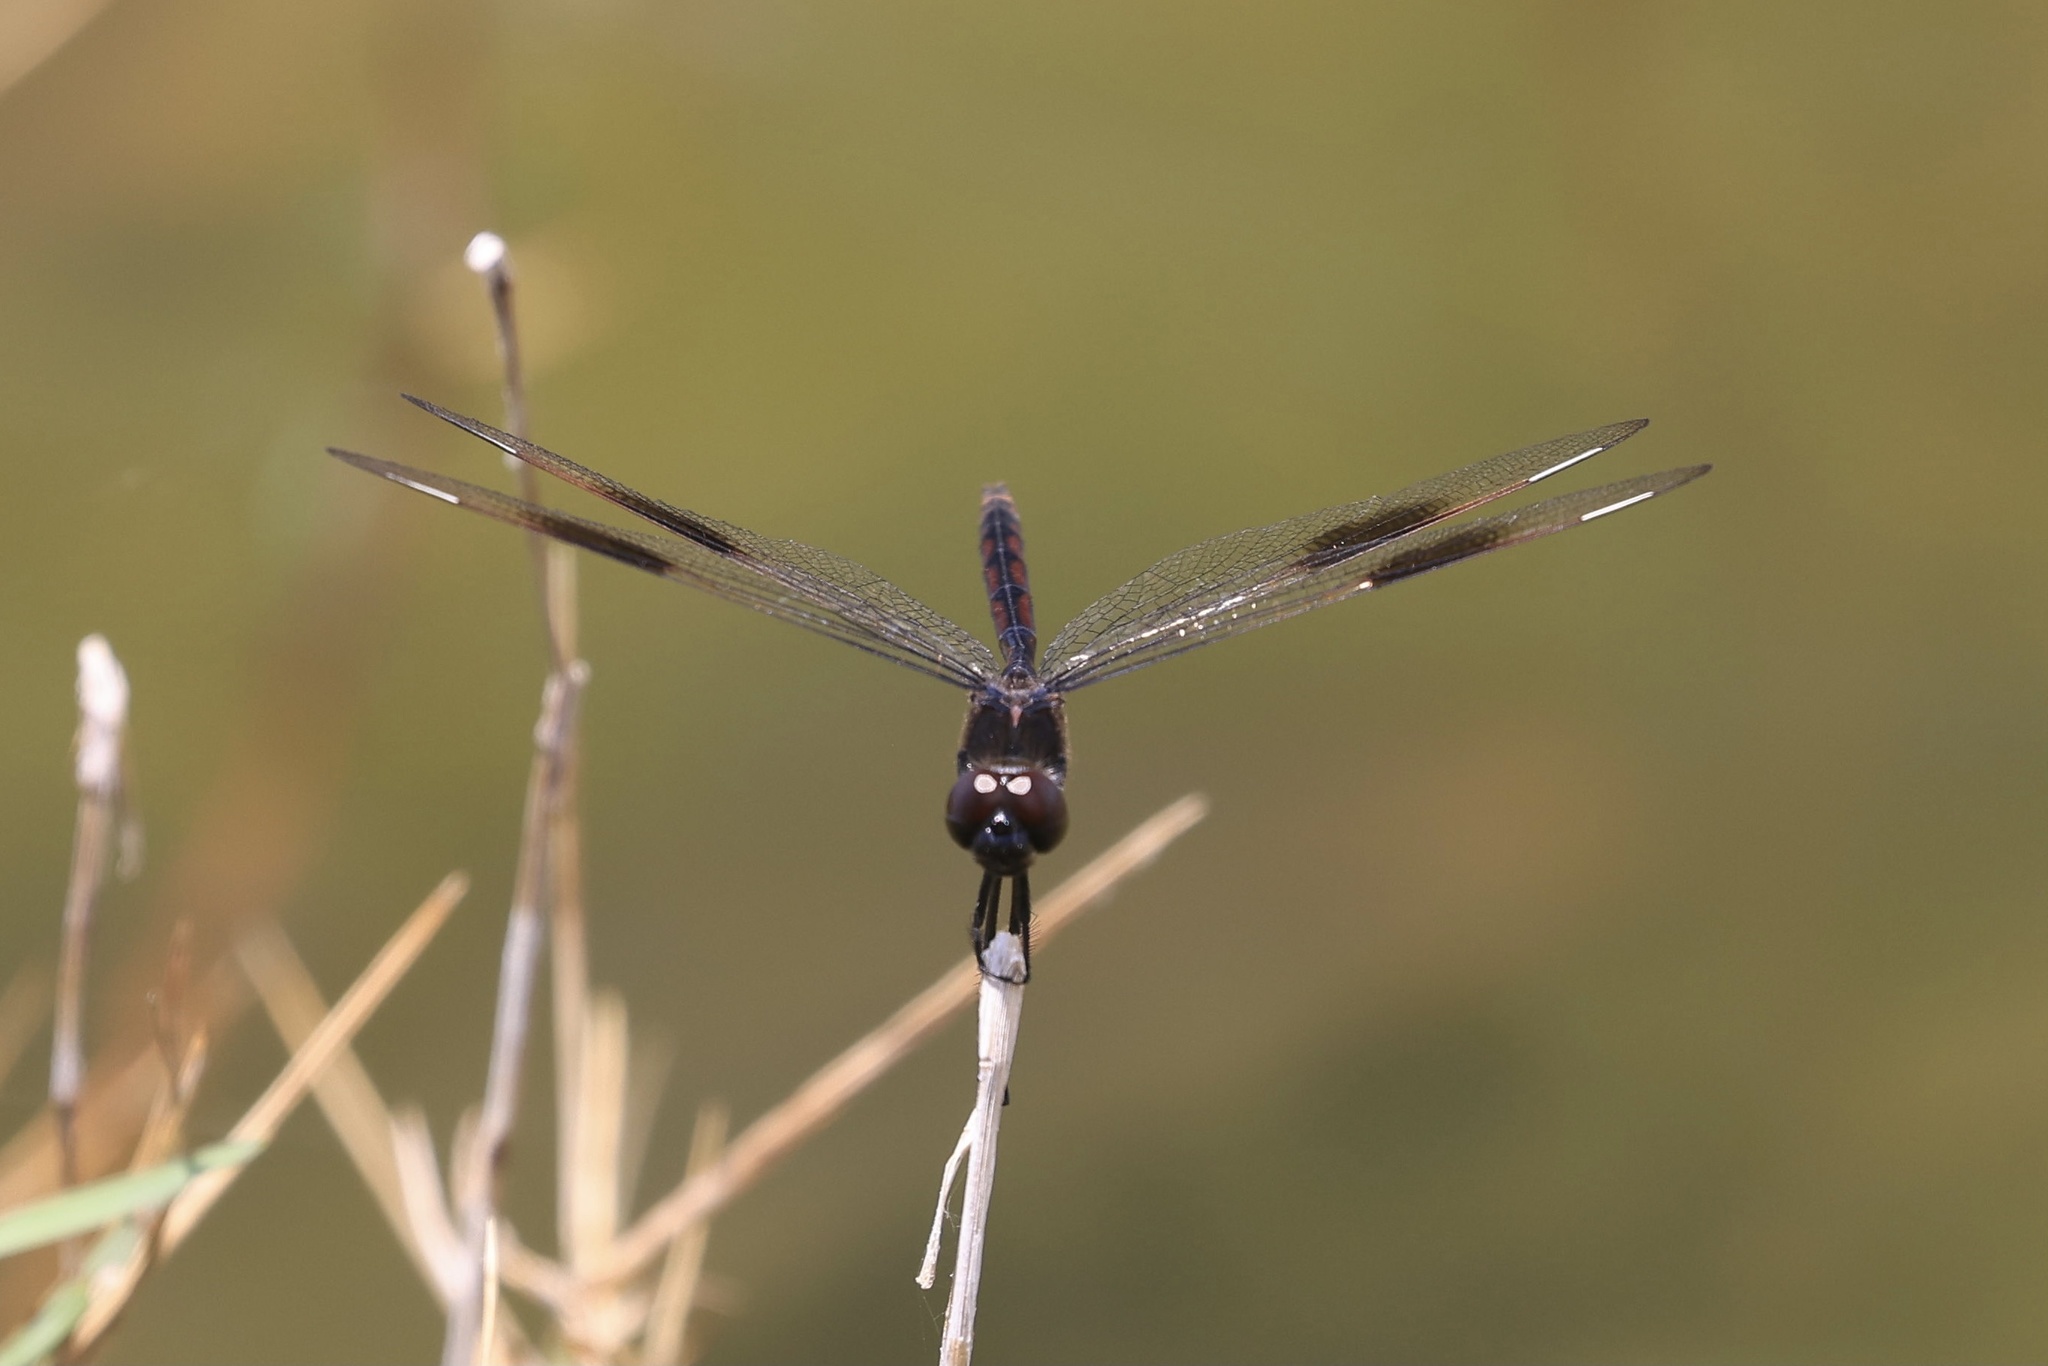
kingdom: Animalia
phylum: Arthropoda
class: Insecta
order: Odonata
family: Libellulidae
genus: Brachymesia
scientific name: Brachymesia gravida
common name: Four-spotted pennant
